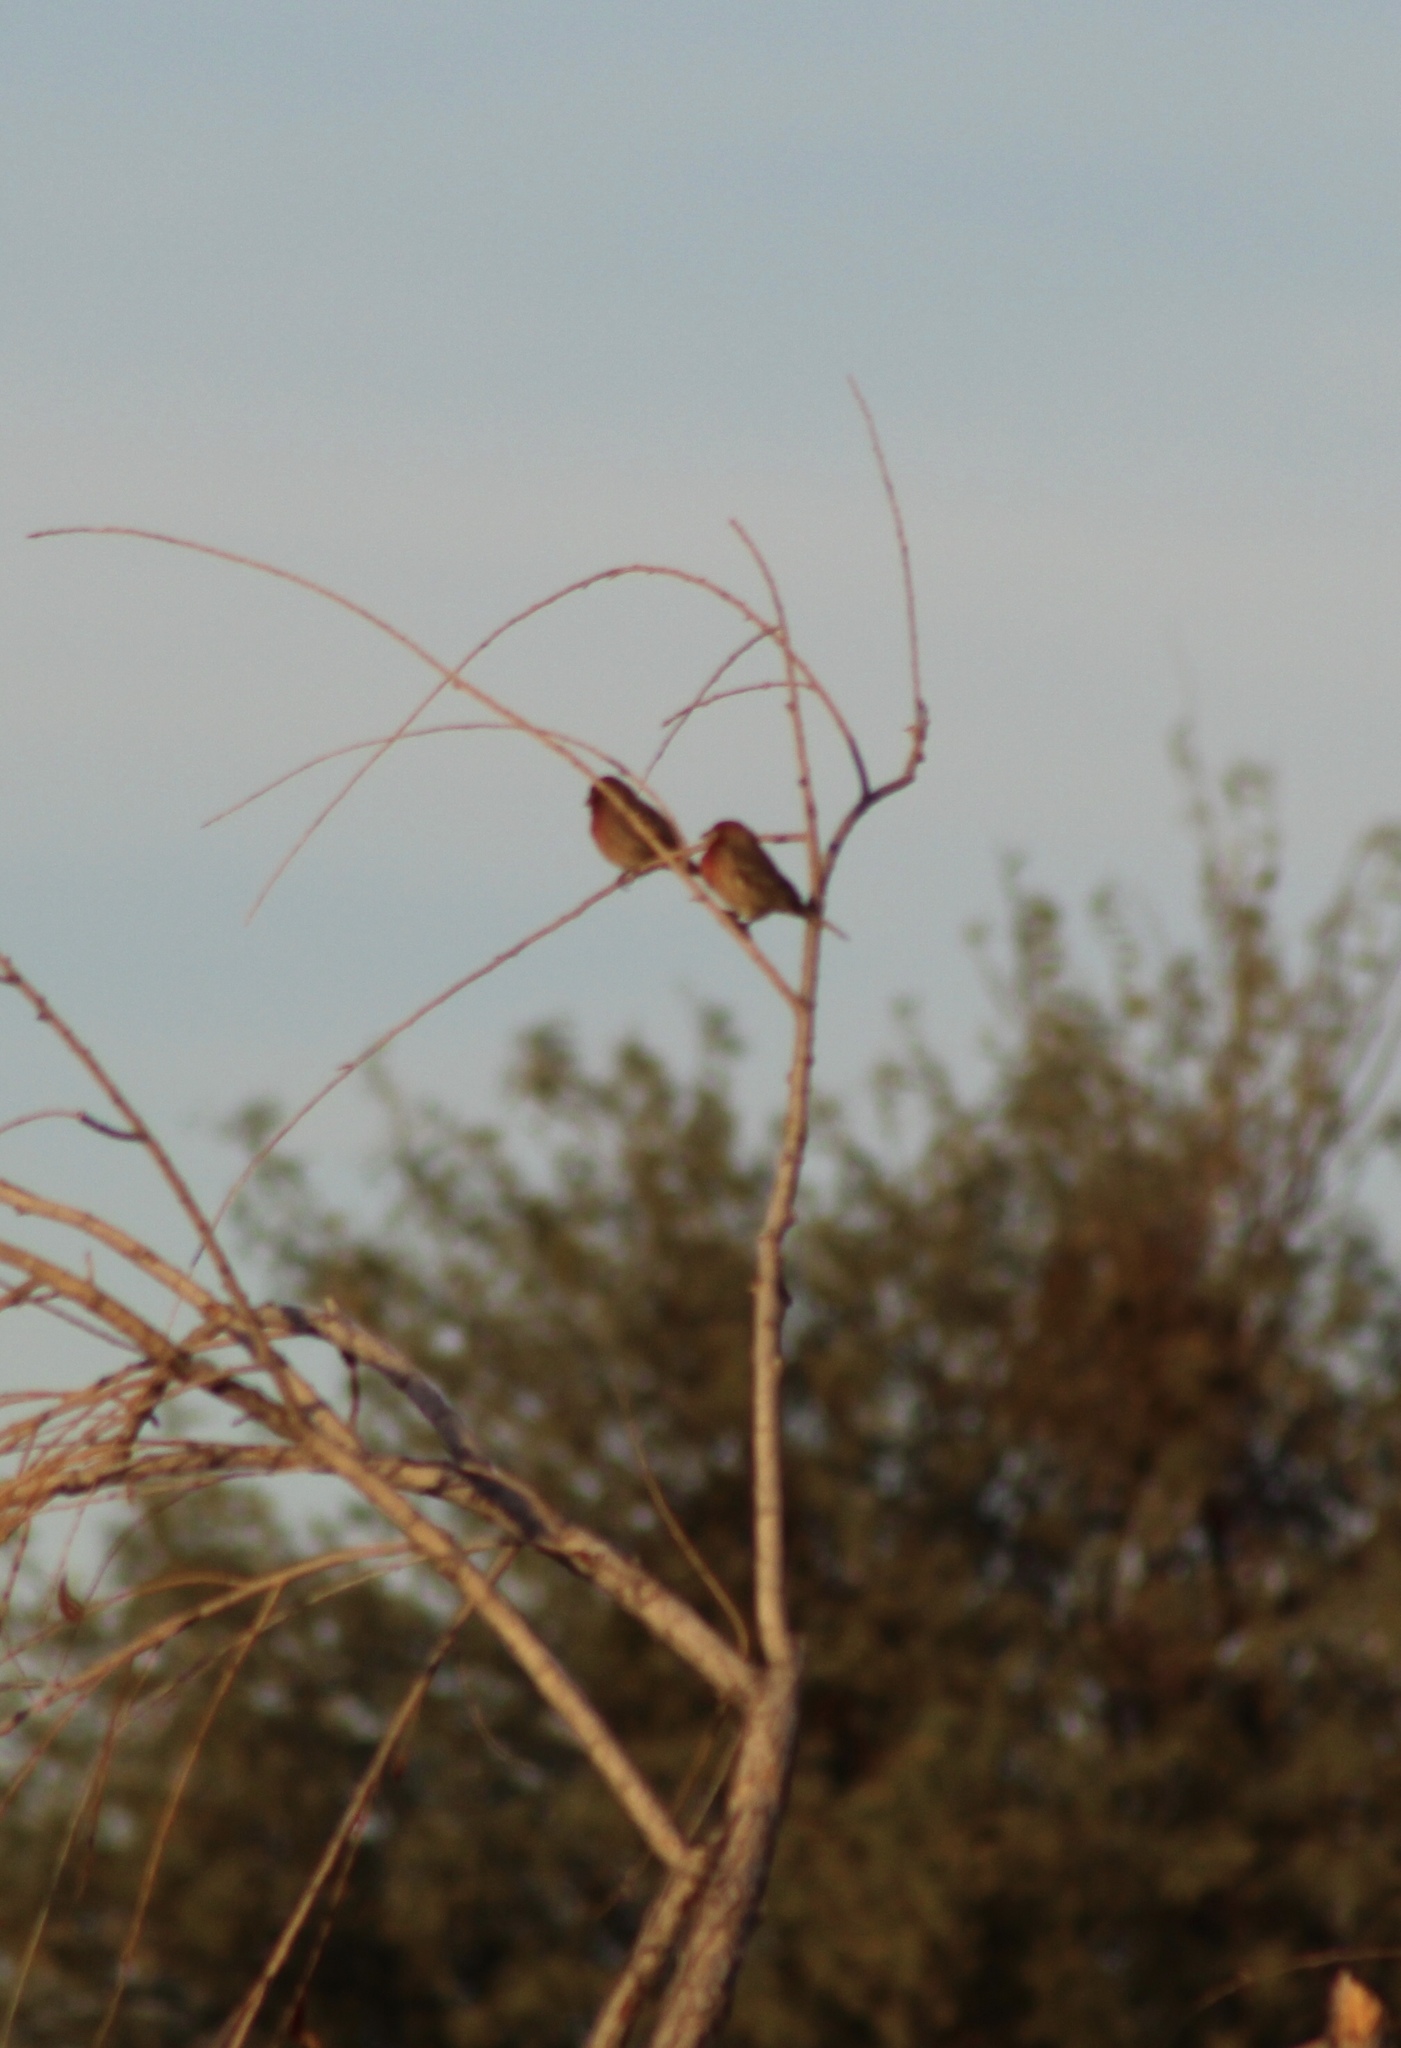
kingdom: Animalia
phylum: Chordata
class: Aves
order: Passeriformes
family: Fringillidae
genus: Haemorhous
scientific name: Haemorhous mexicanus
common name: House finch
